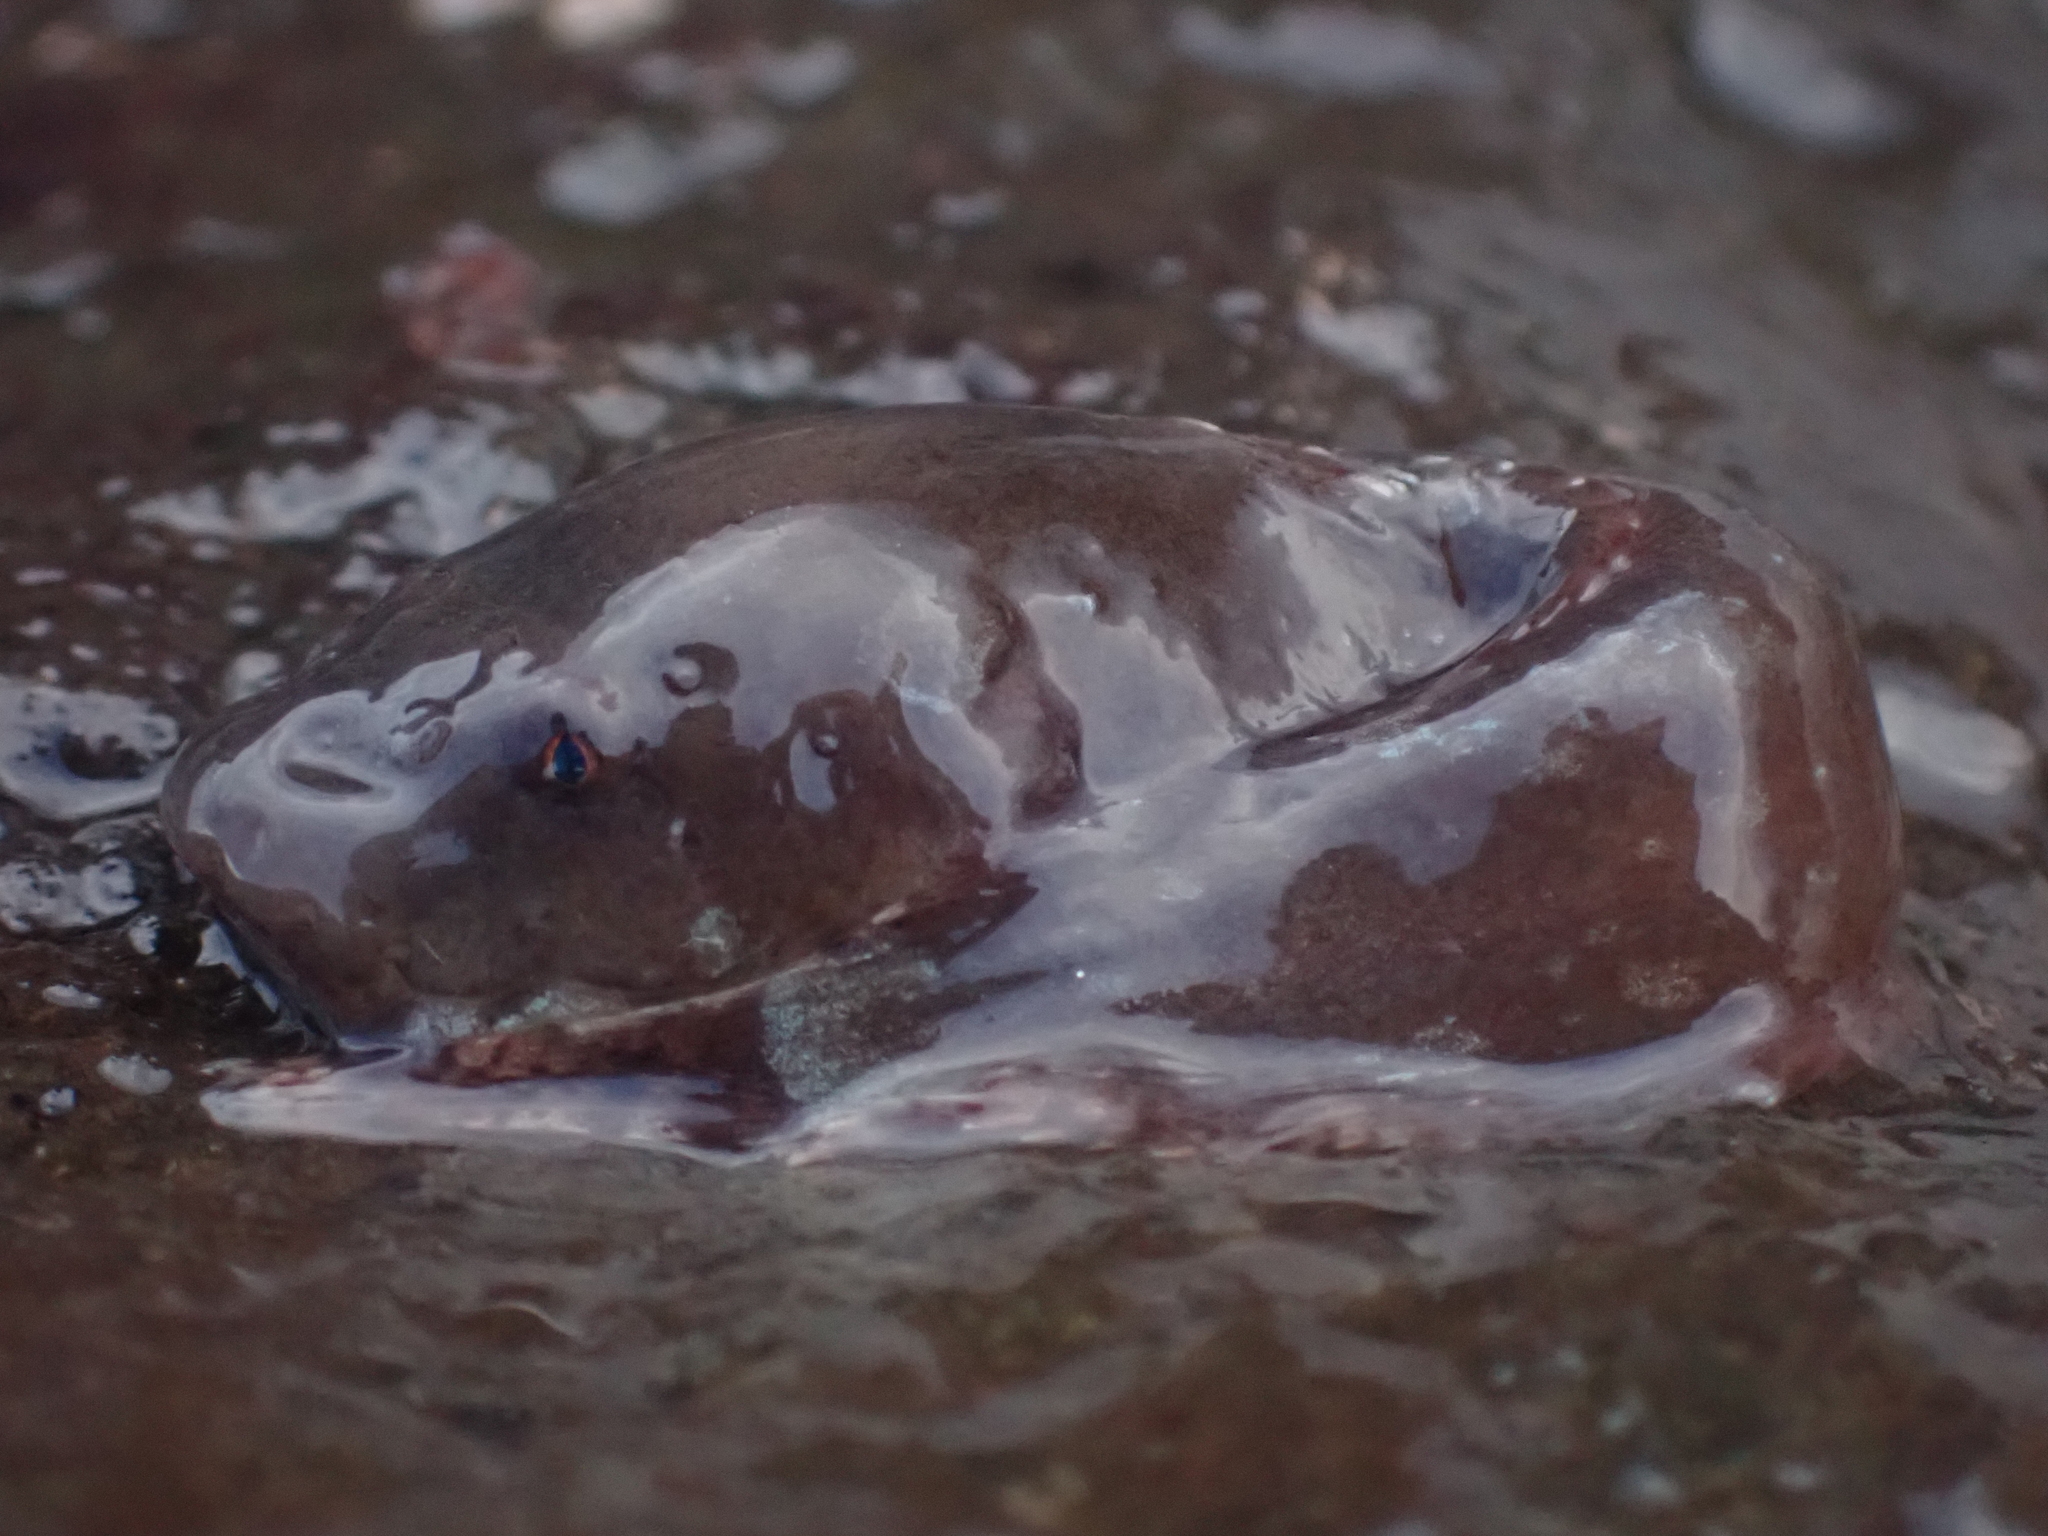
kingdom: Animalia
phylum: Chordata
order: Scorpaeniformes
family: Liparidae
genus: Liparis
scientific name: Liparis atlanticus
